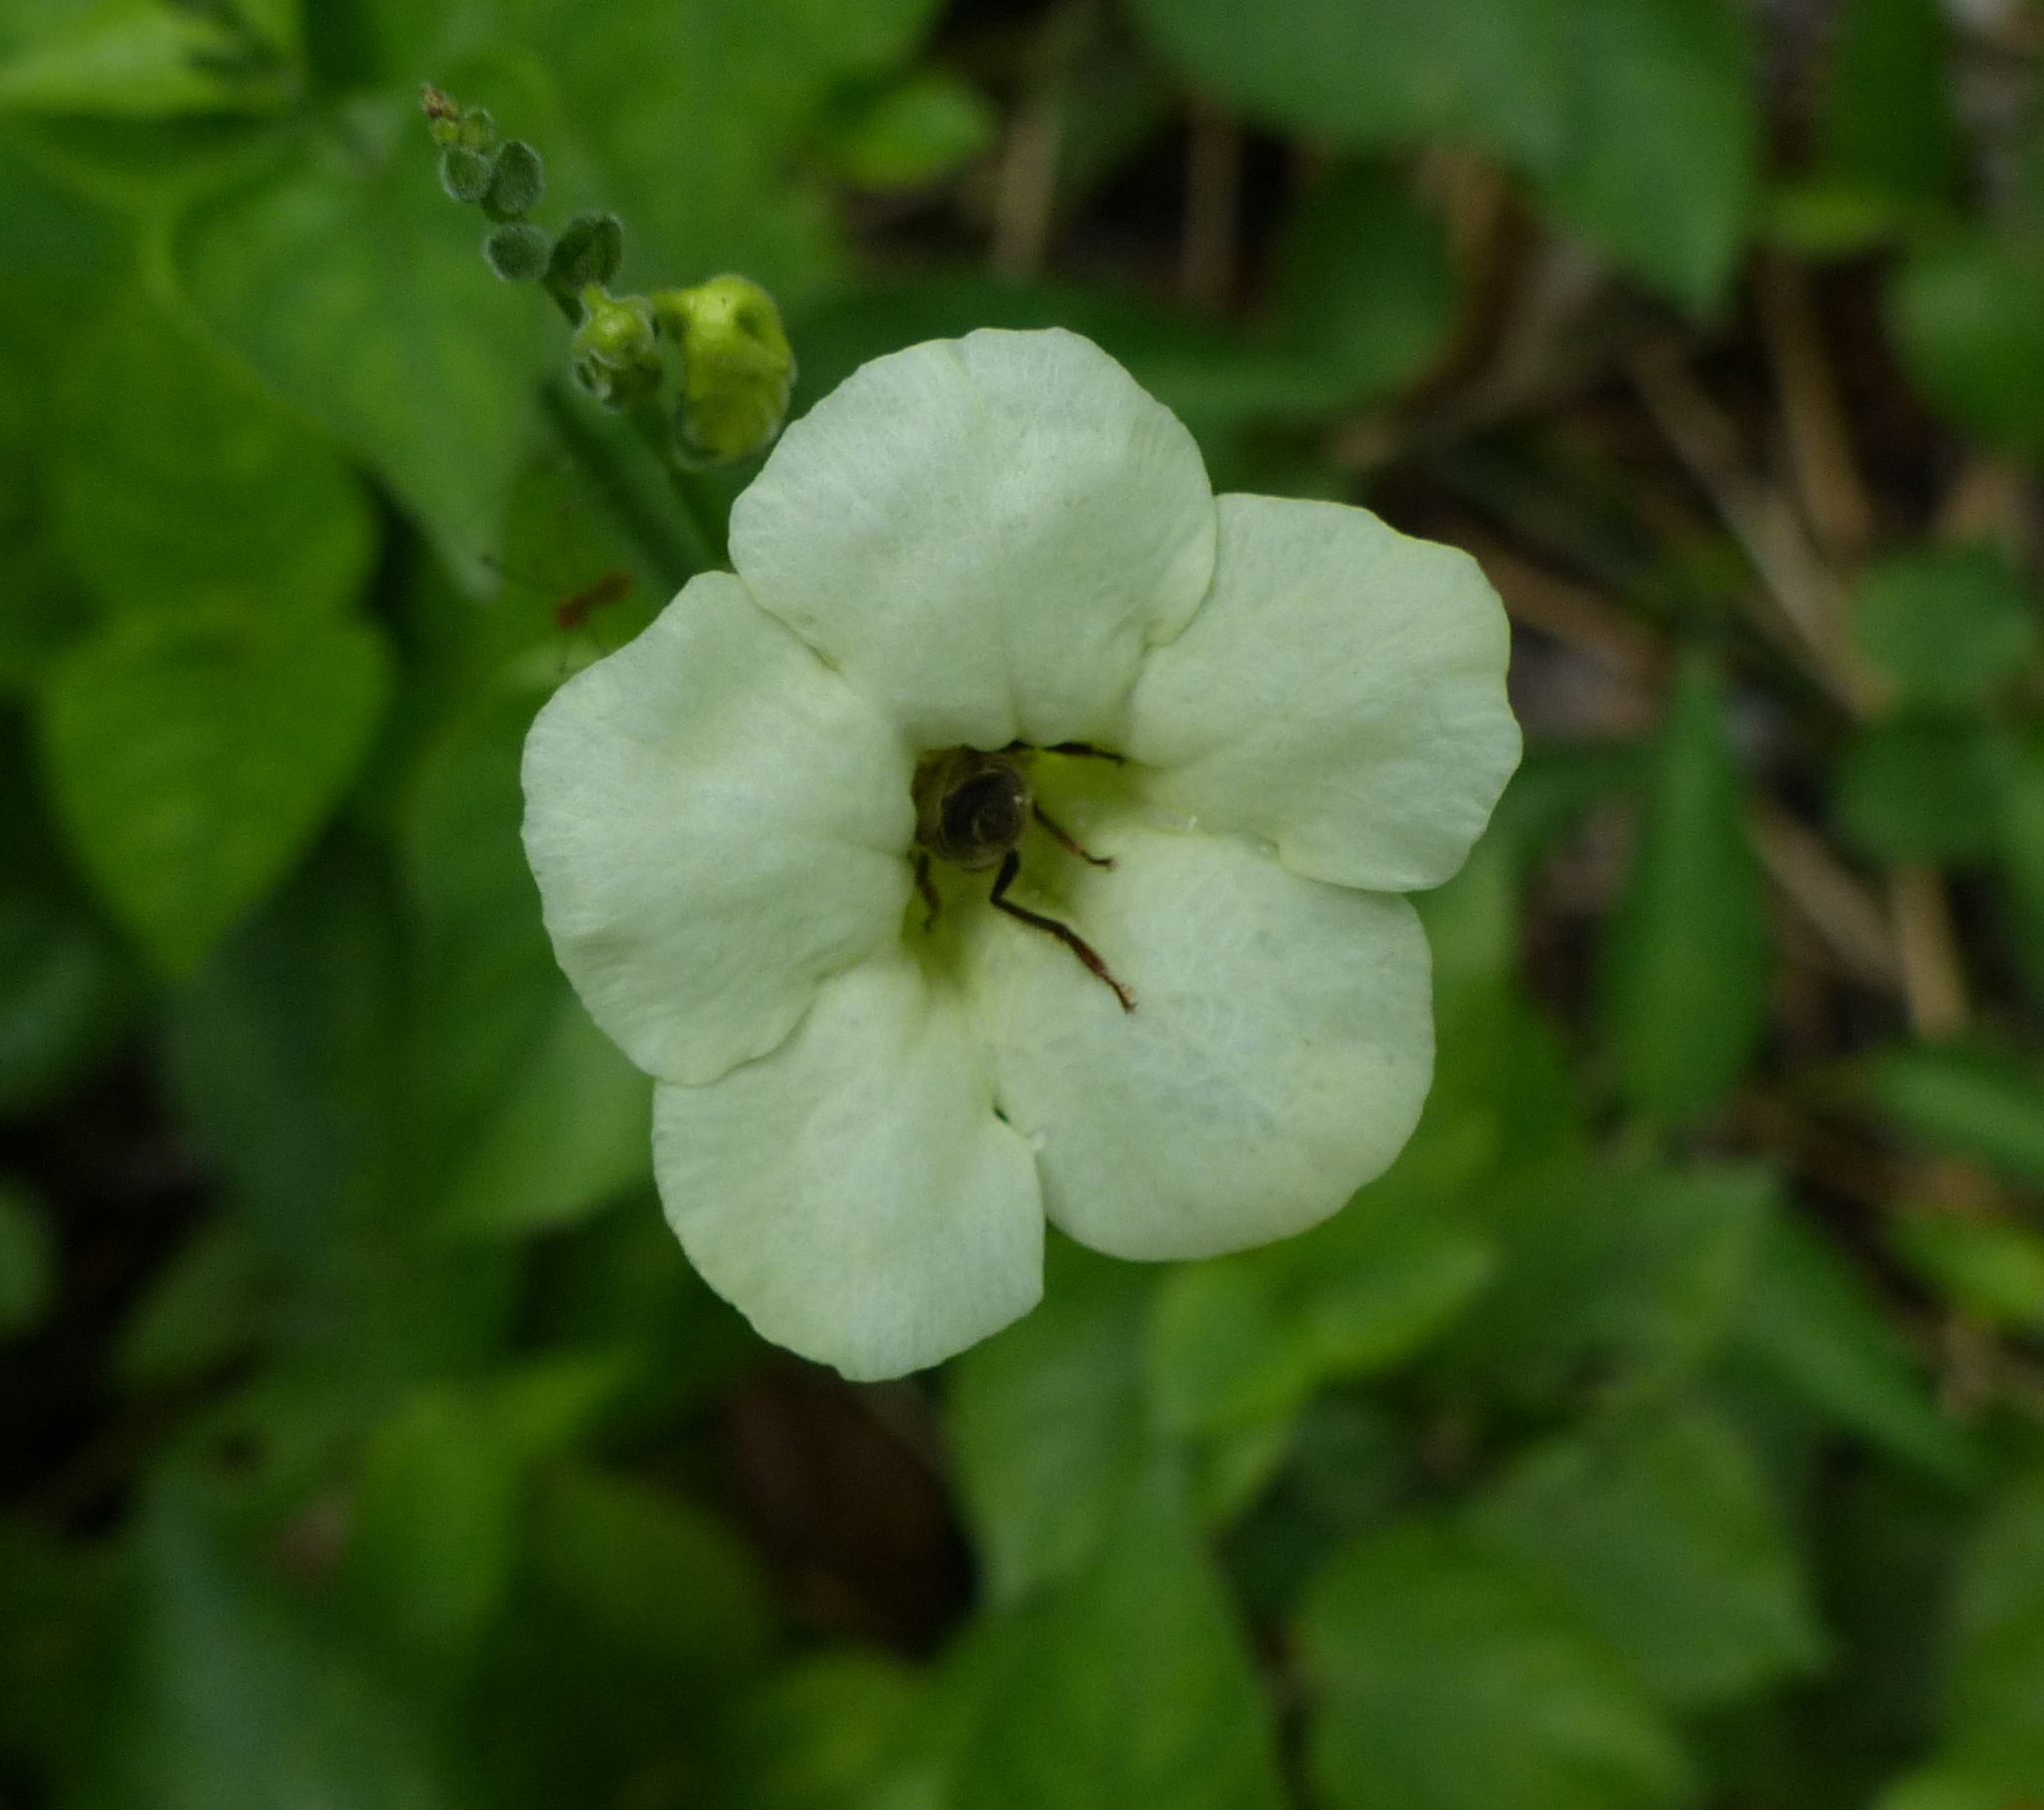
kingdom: Animalia
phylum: Arthropoda
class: Insecta
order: Hymenoptera
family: Apidae
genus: Apis
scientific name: Apis mellifera
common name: Honey bee
